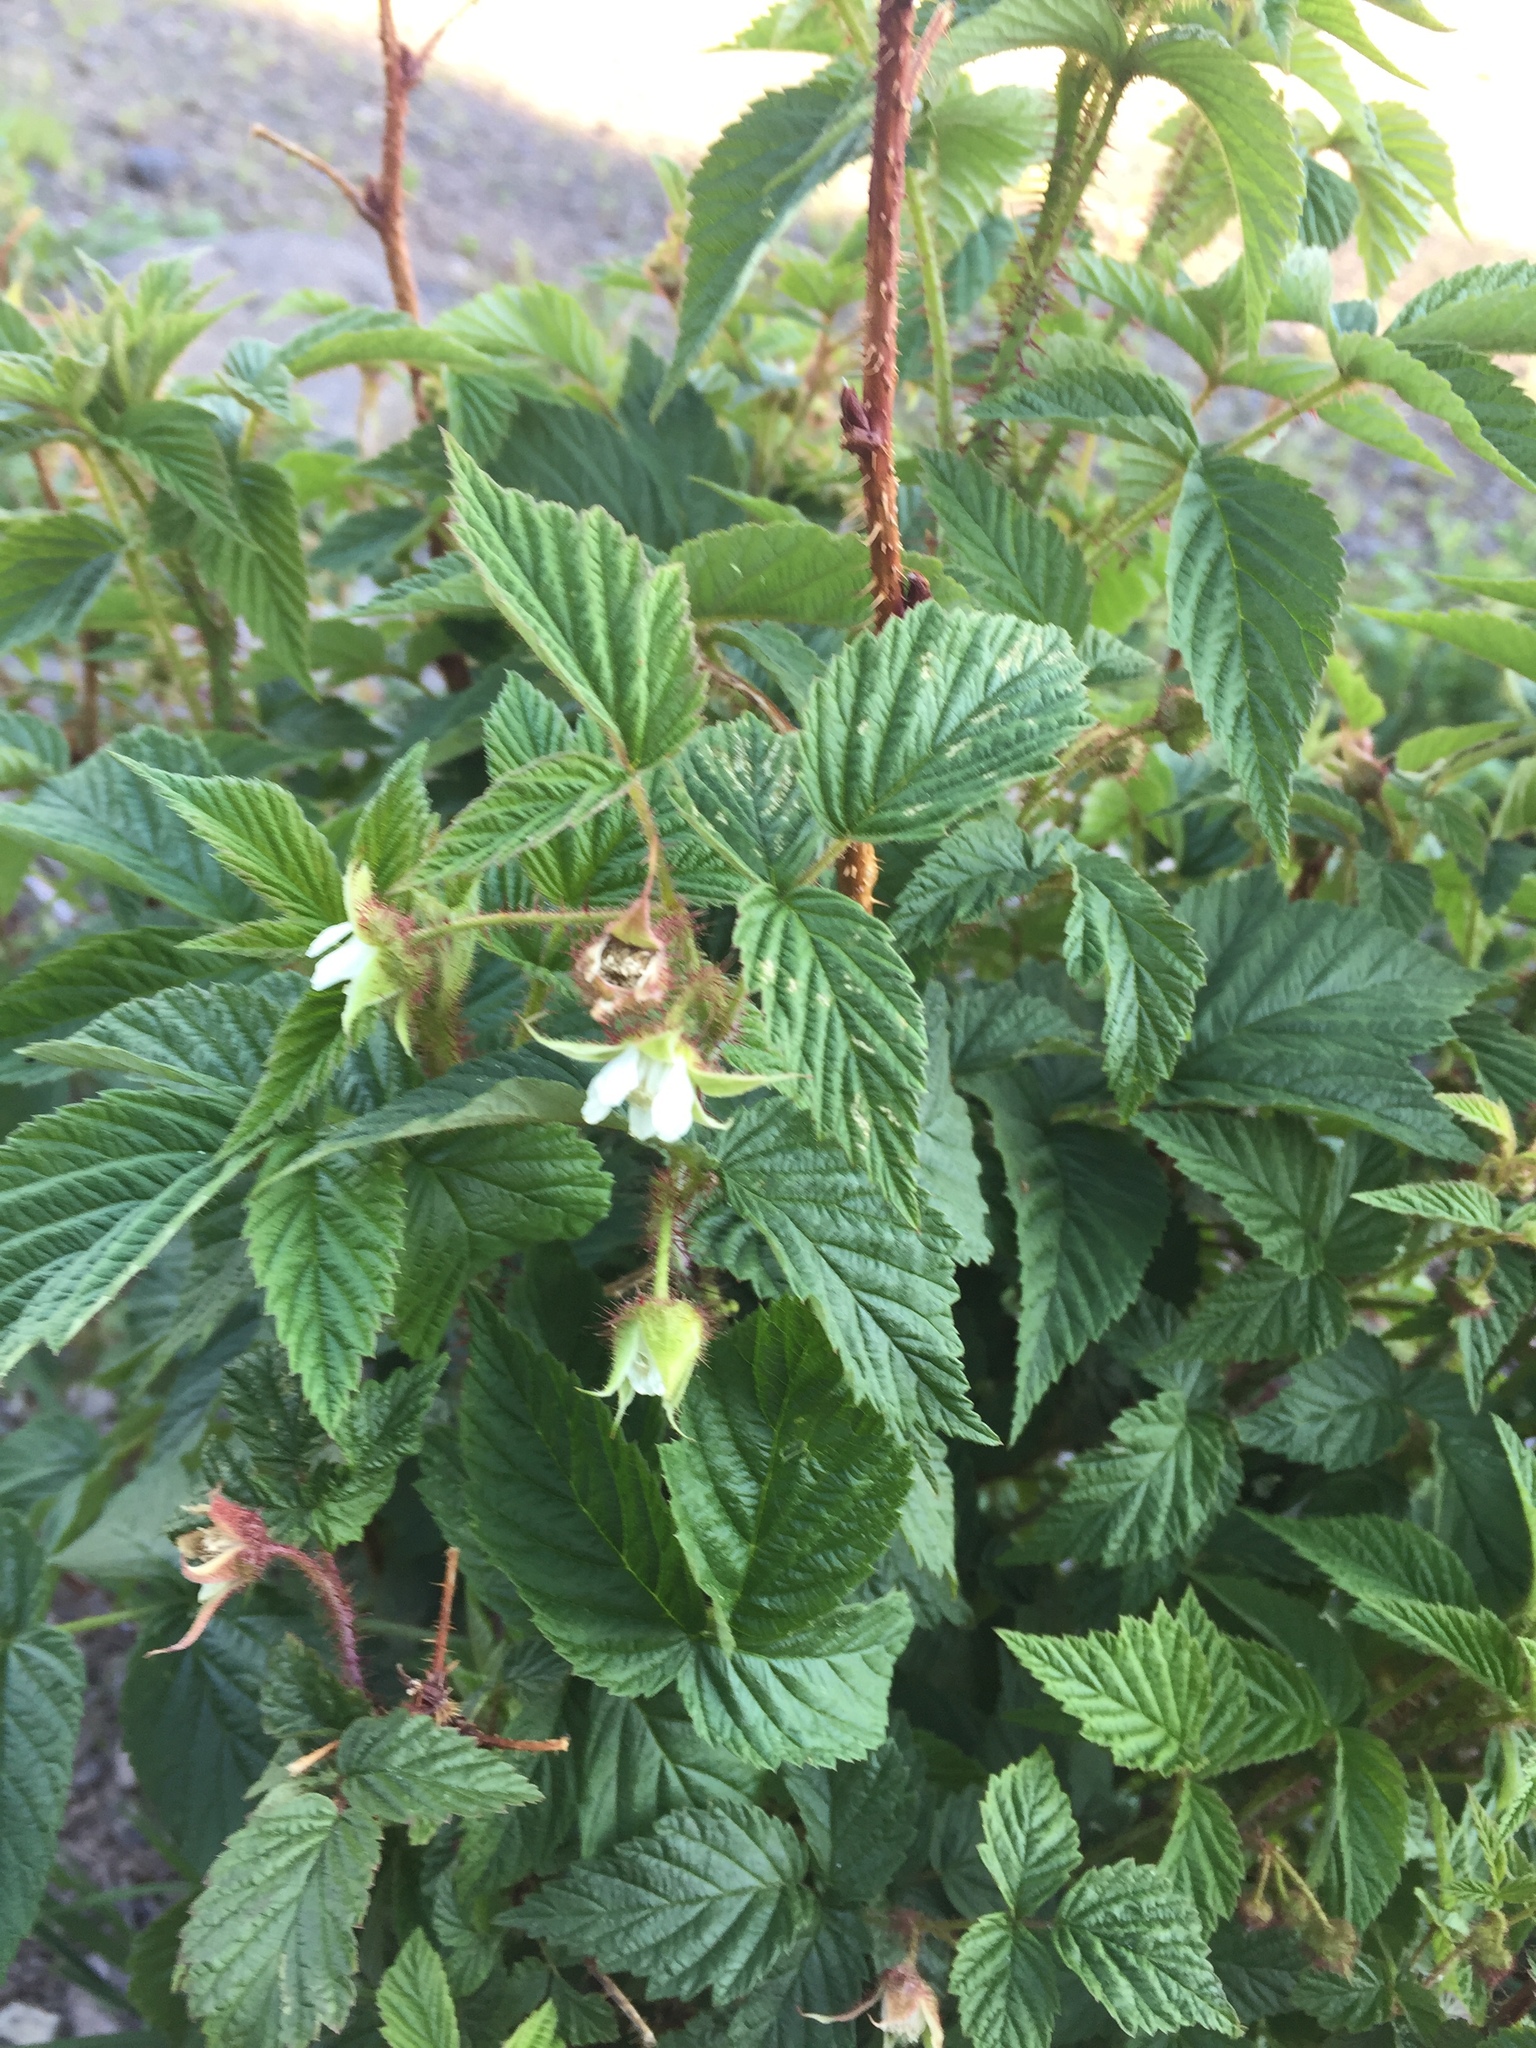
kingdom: Plantae
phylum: Tracheophyta
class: Magnoliopsida
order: Rosales
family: Rosaceae
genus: Rubus
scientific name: Rubus idaeus
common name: Raspberry
